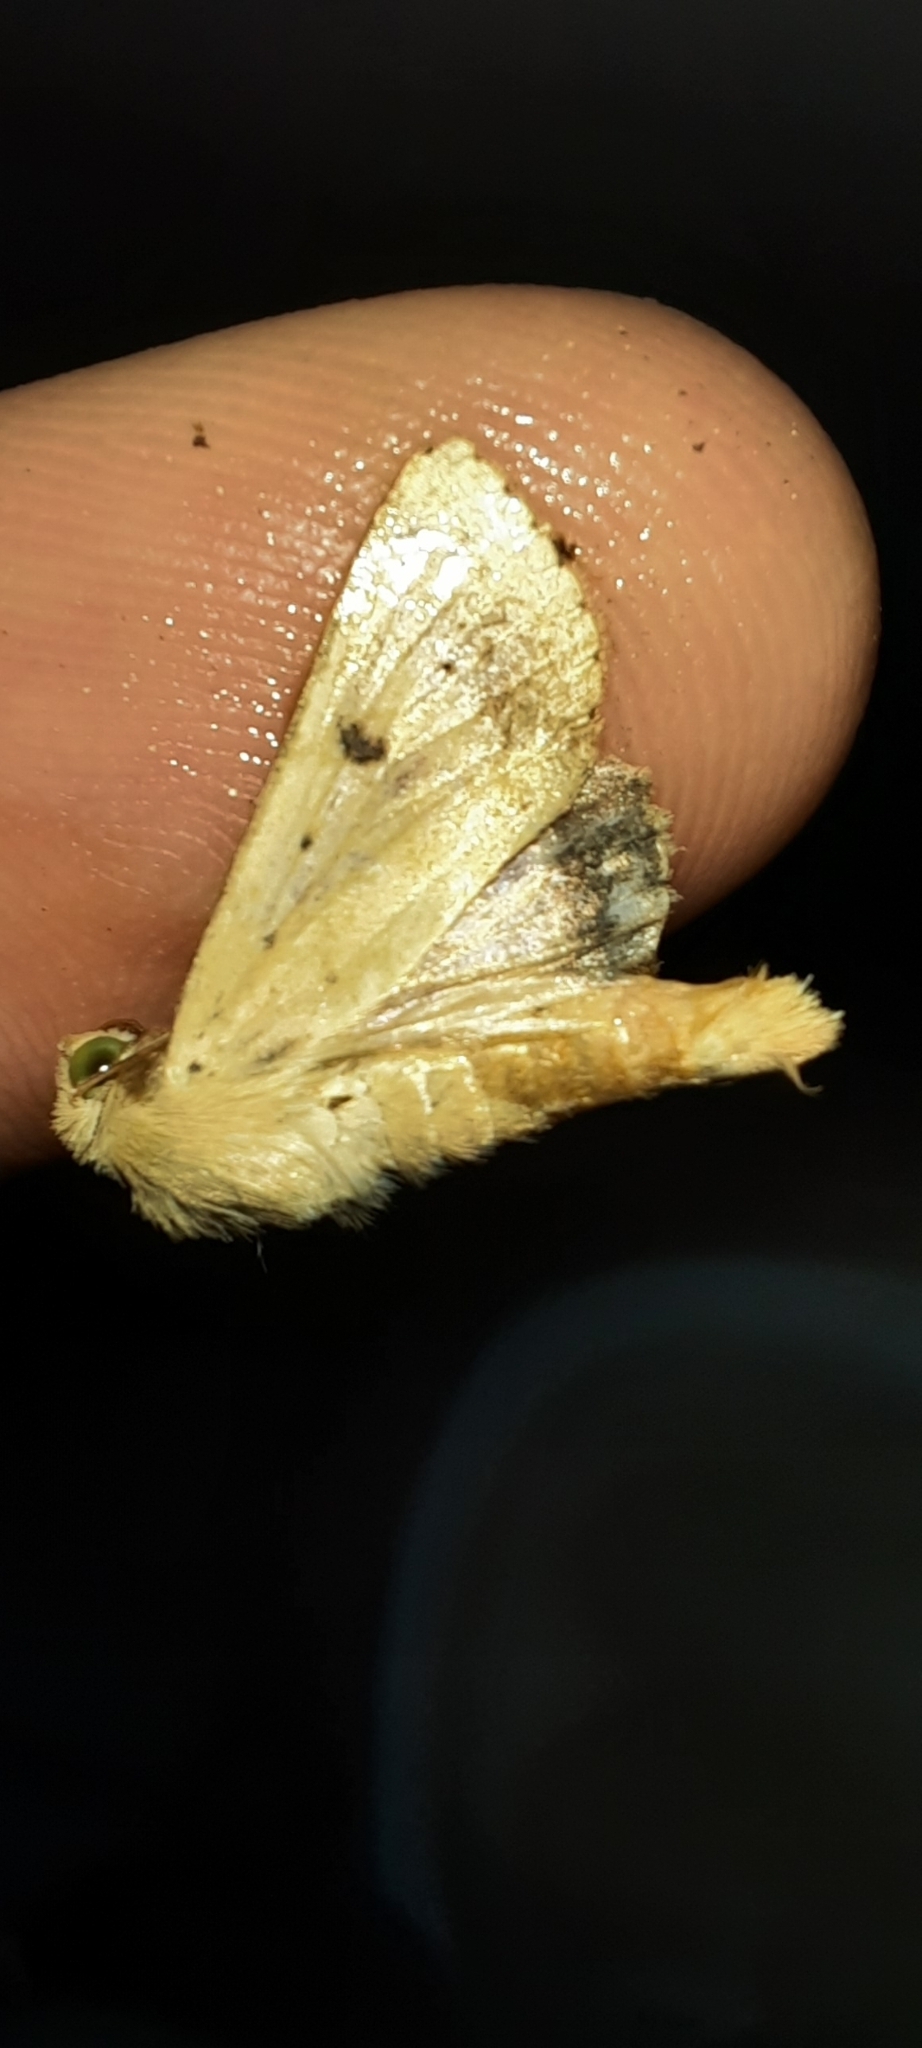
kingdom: Animalia
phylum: Arthropoda
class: Insecta
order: Lepidoptera
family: Noctuidae
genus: Helicoverpa
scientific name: Helicoverpa armigera
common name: Cotton bollworm
